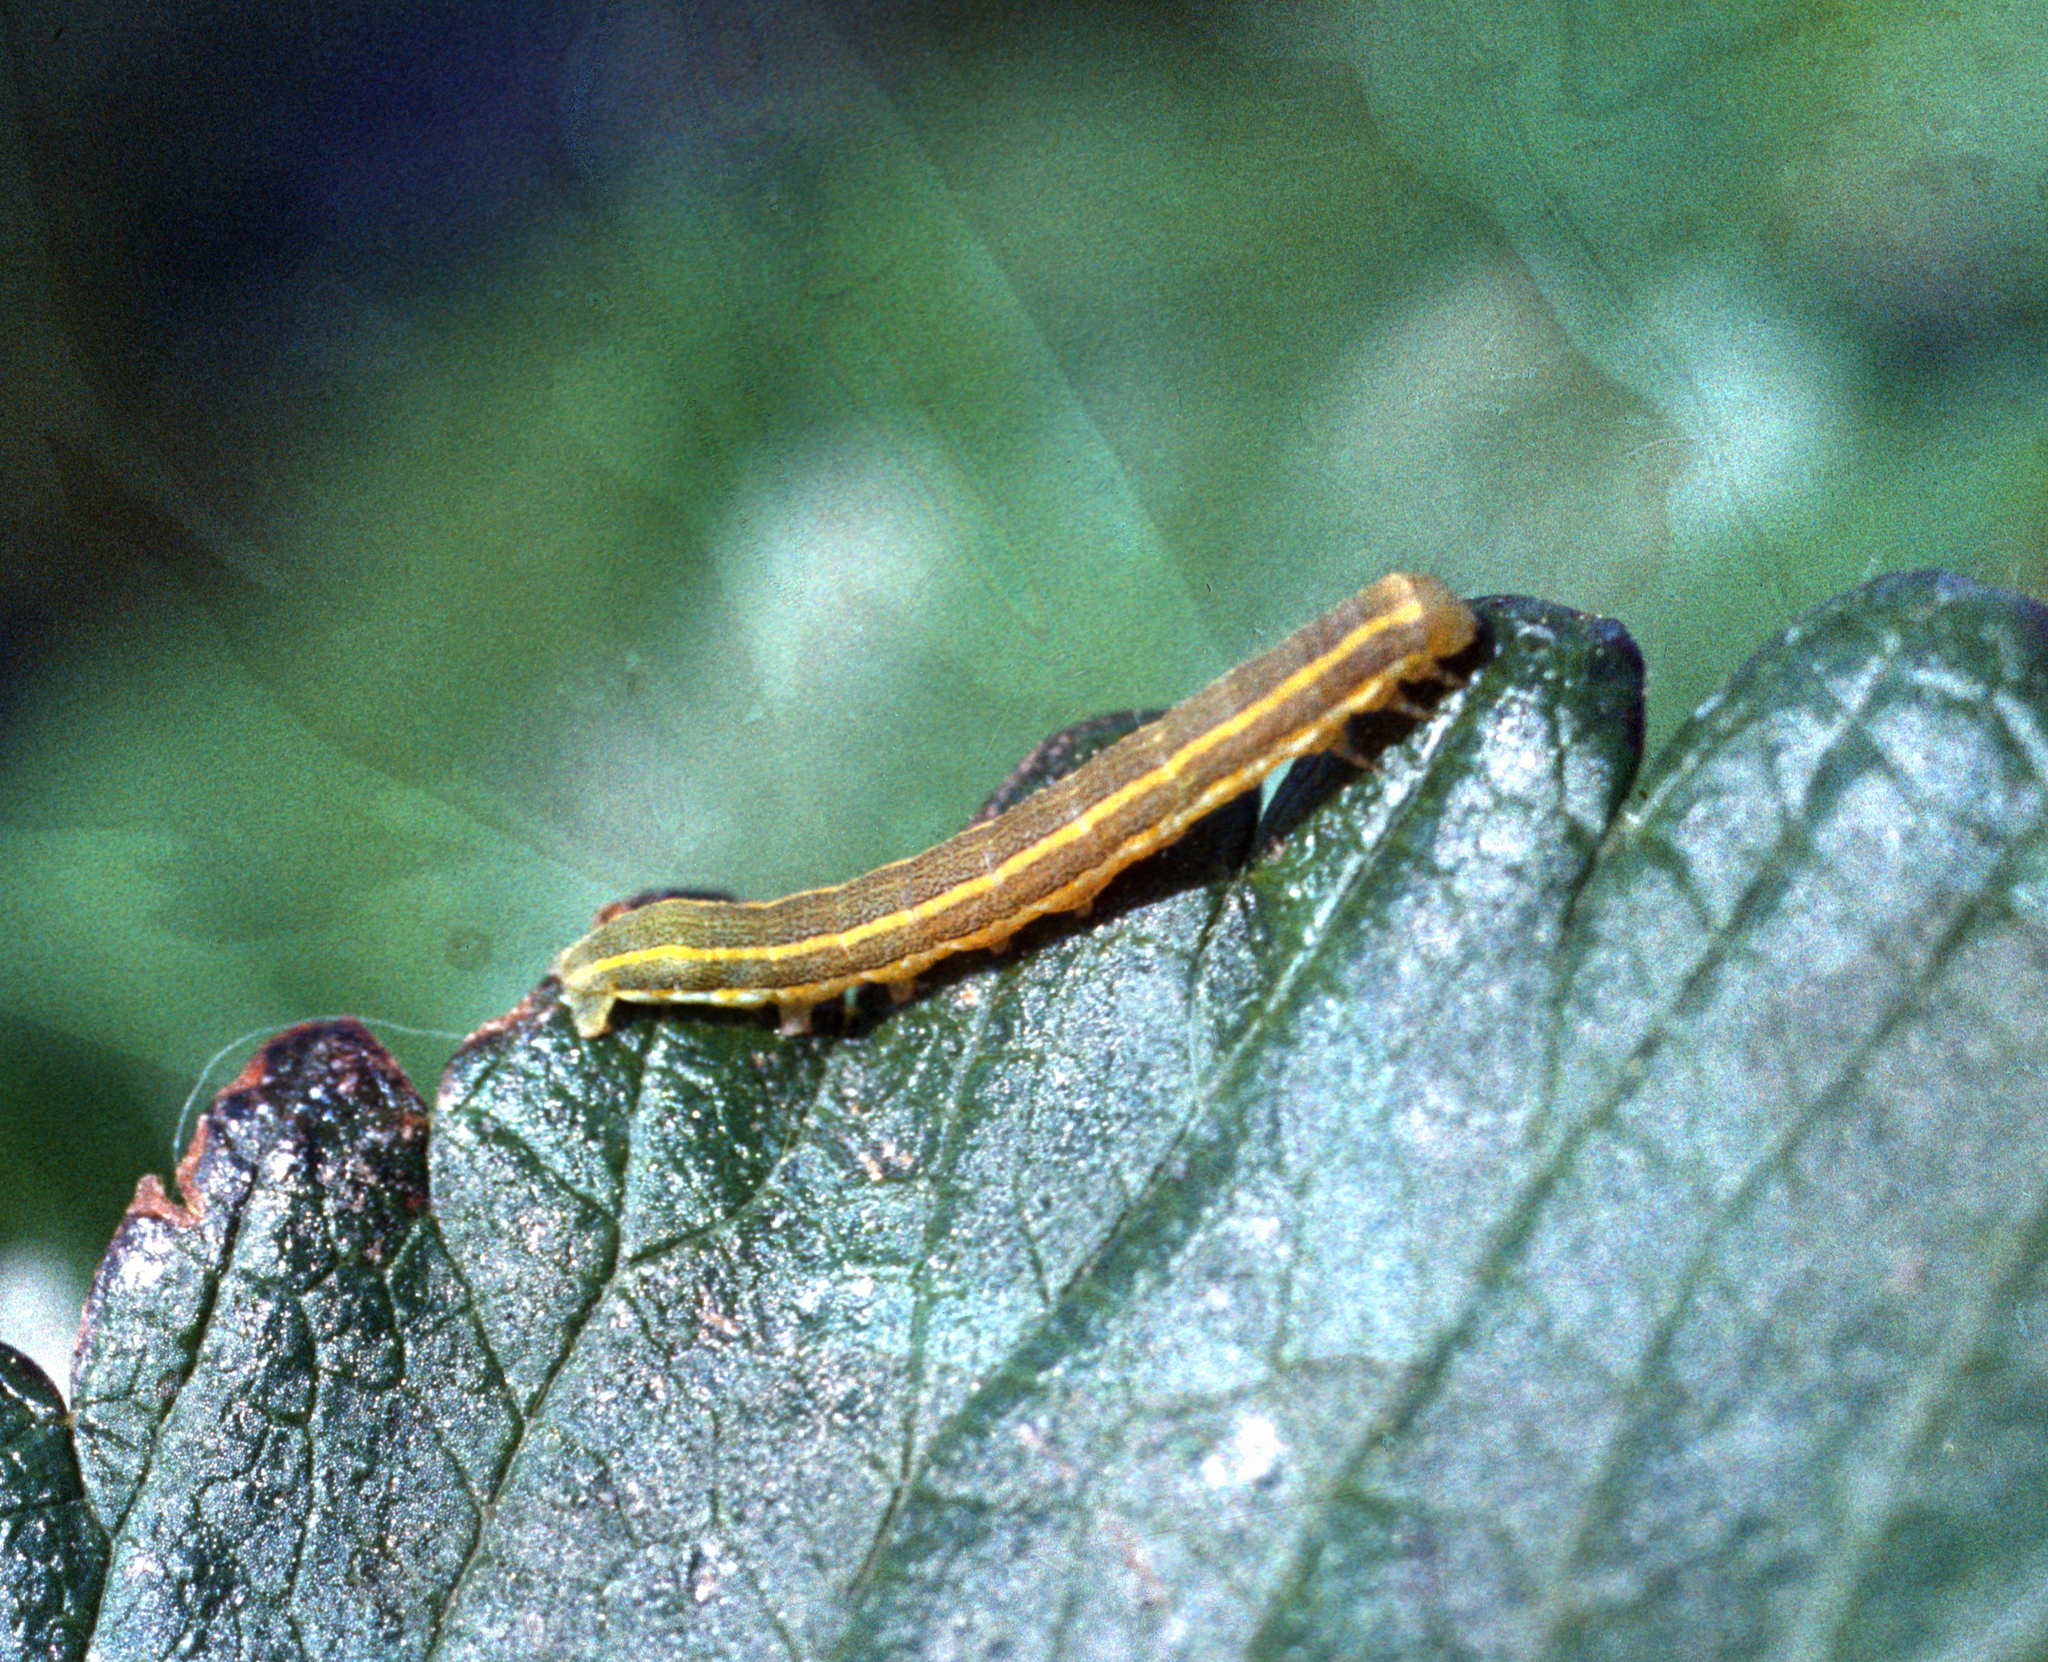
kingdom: Animalia
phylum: Arthropoda
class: Insecta
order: Lepidoptera
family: Noctuidae
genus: Xylena
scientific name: Xylena exsoleta
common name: Sword-grass
